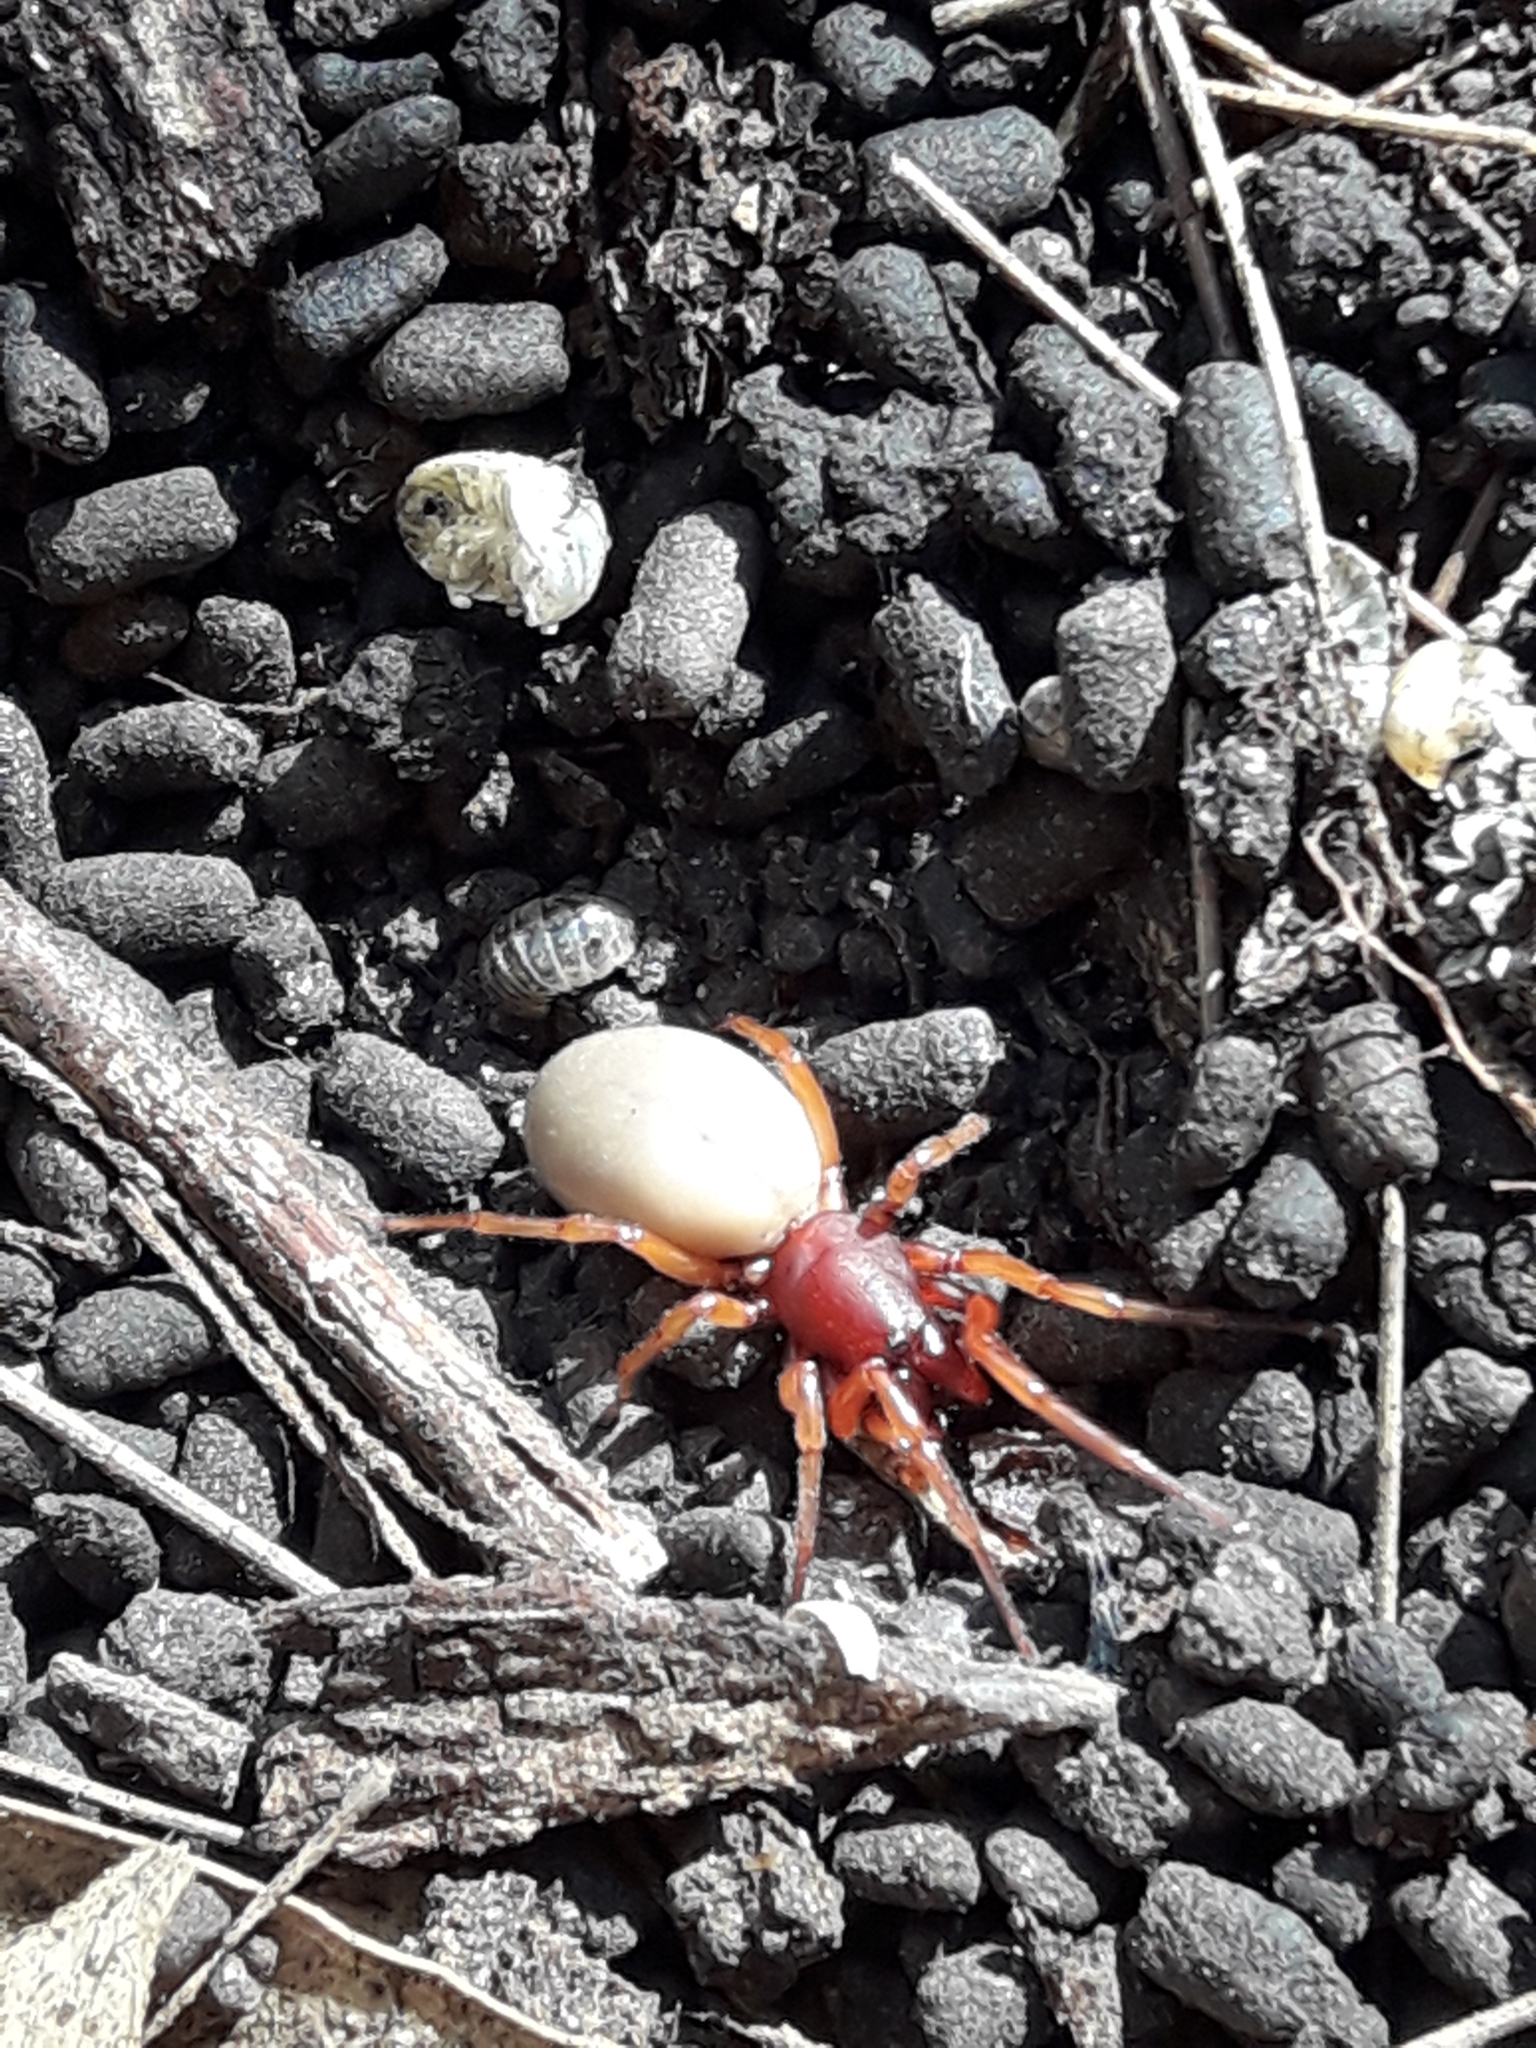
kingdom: Animalia
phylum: Arthropoda
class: Arachnida
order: Araneae
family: Dysderidae
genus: Dysdera
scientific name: Dysdera crocata
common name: Woodlouse spider
